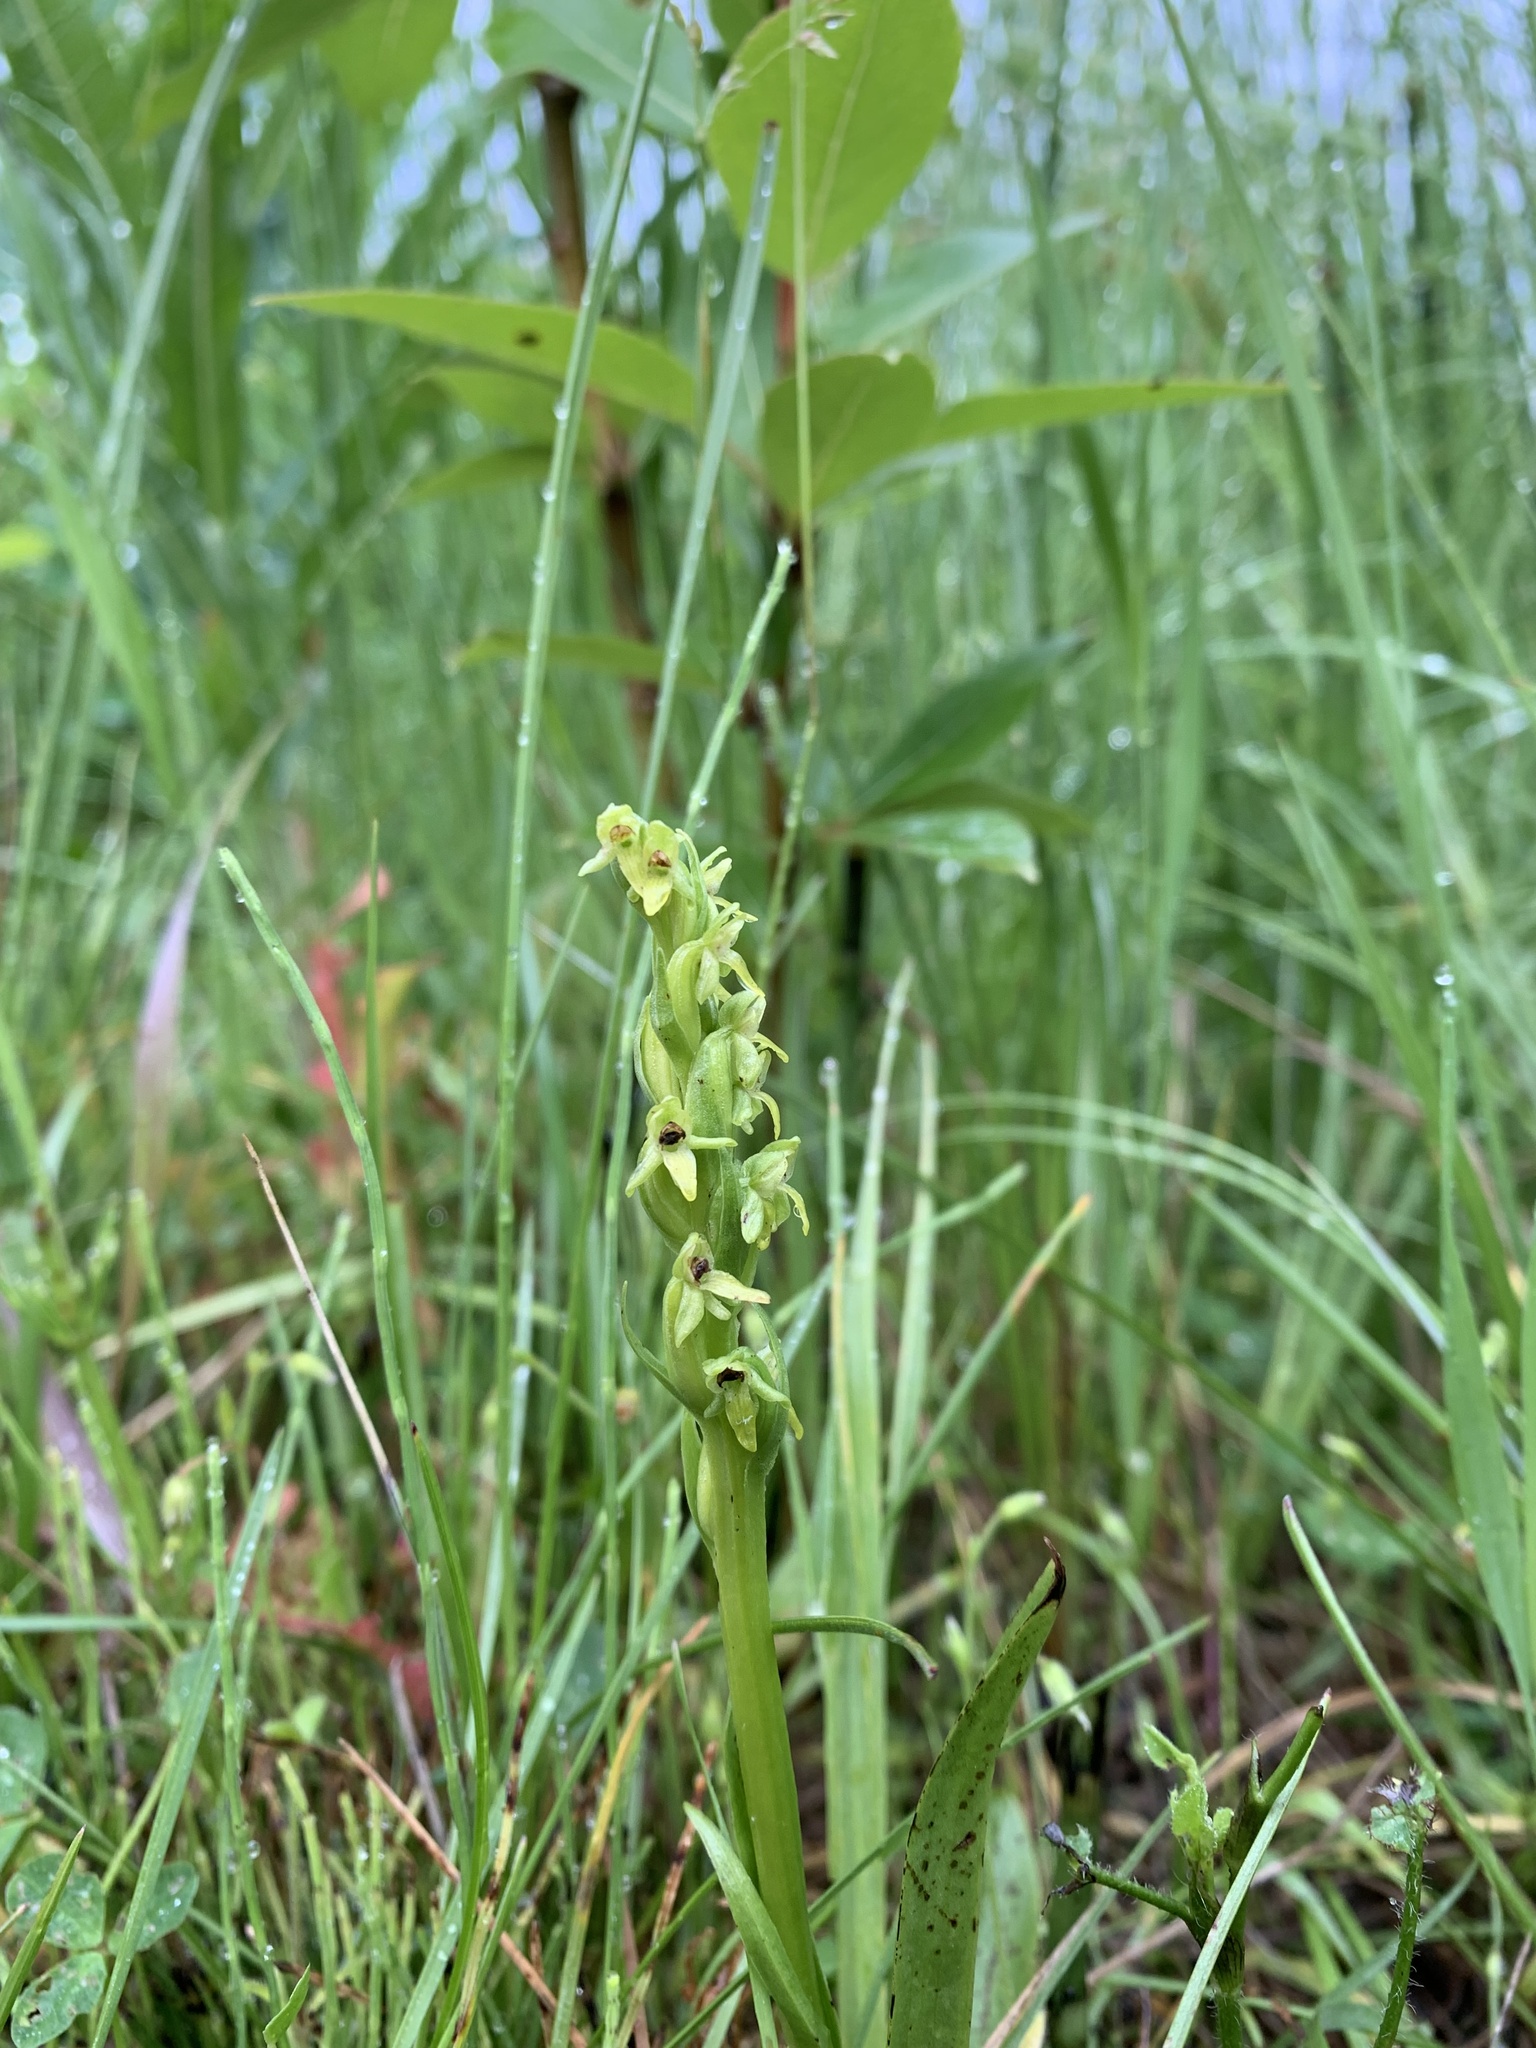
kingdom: Plantae
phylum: Tracheophyta
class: Liliopsida
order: Asparagales
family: Orchidaceae
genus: Platanthera
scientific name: Platanthera aquilonis
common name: Northern green orchid
